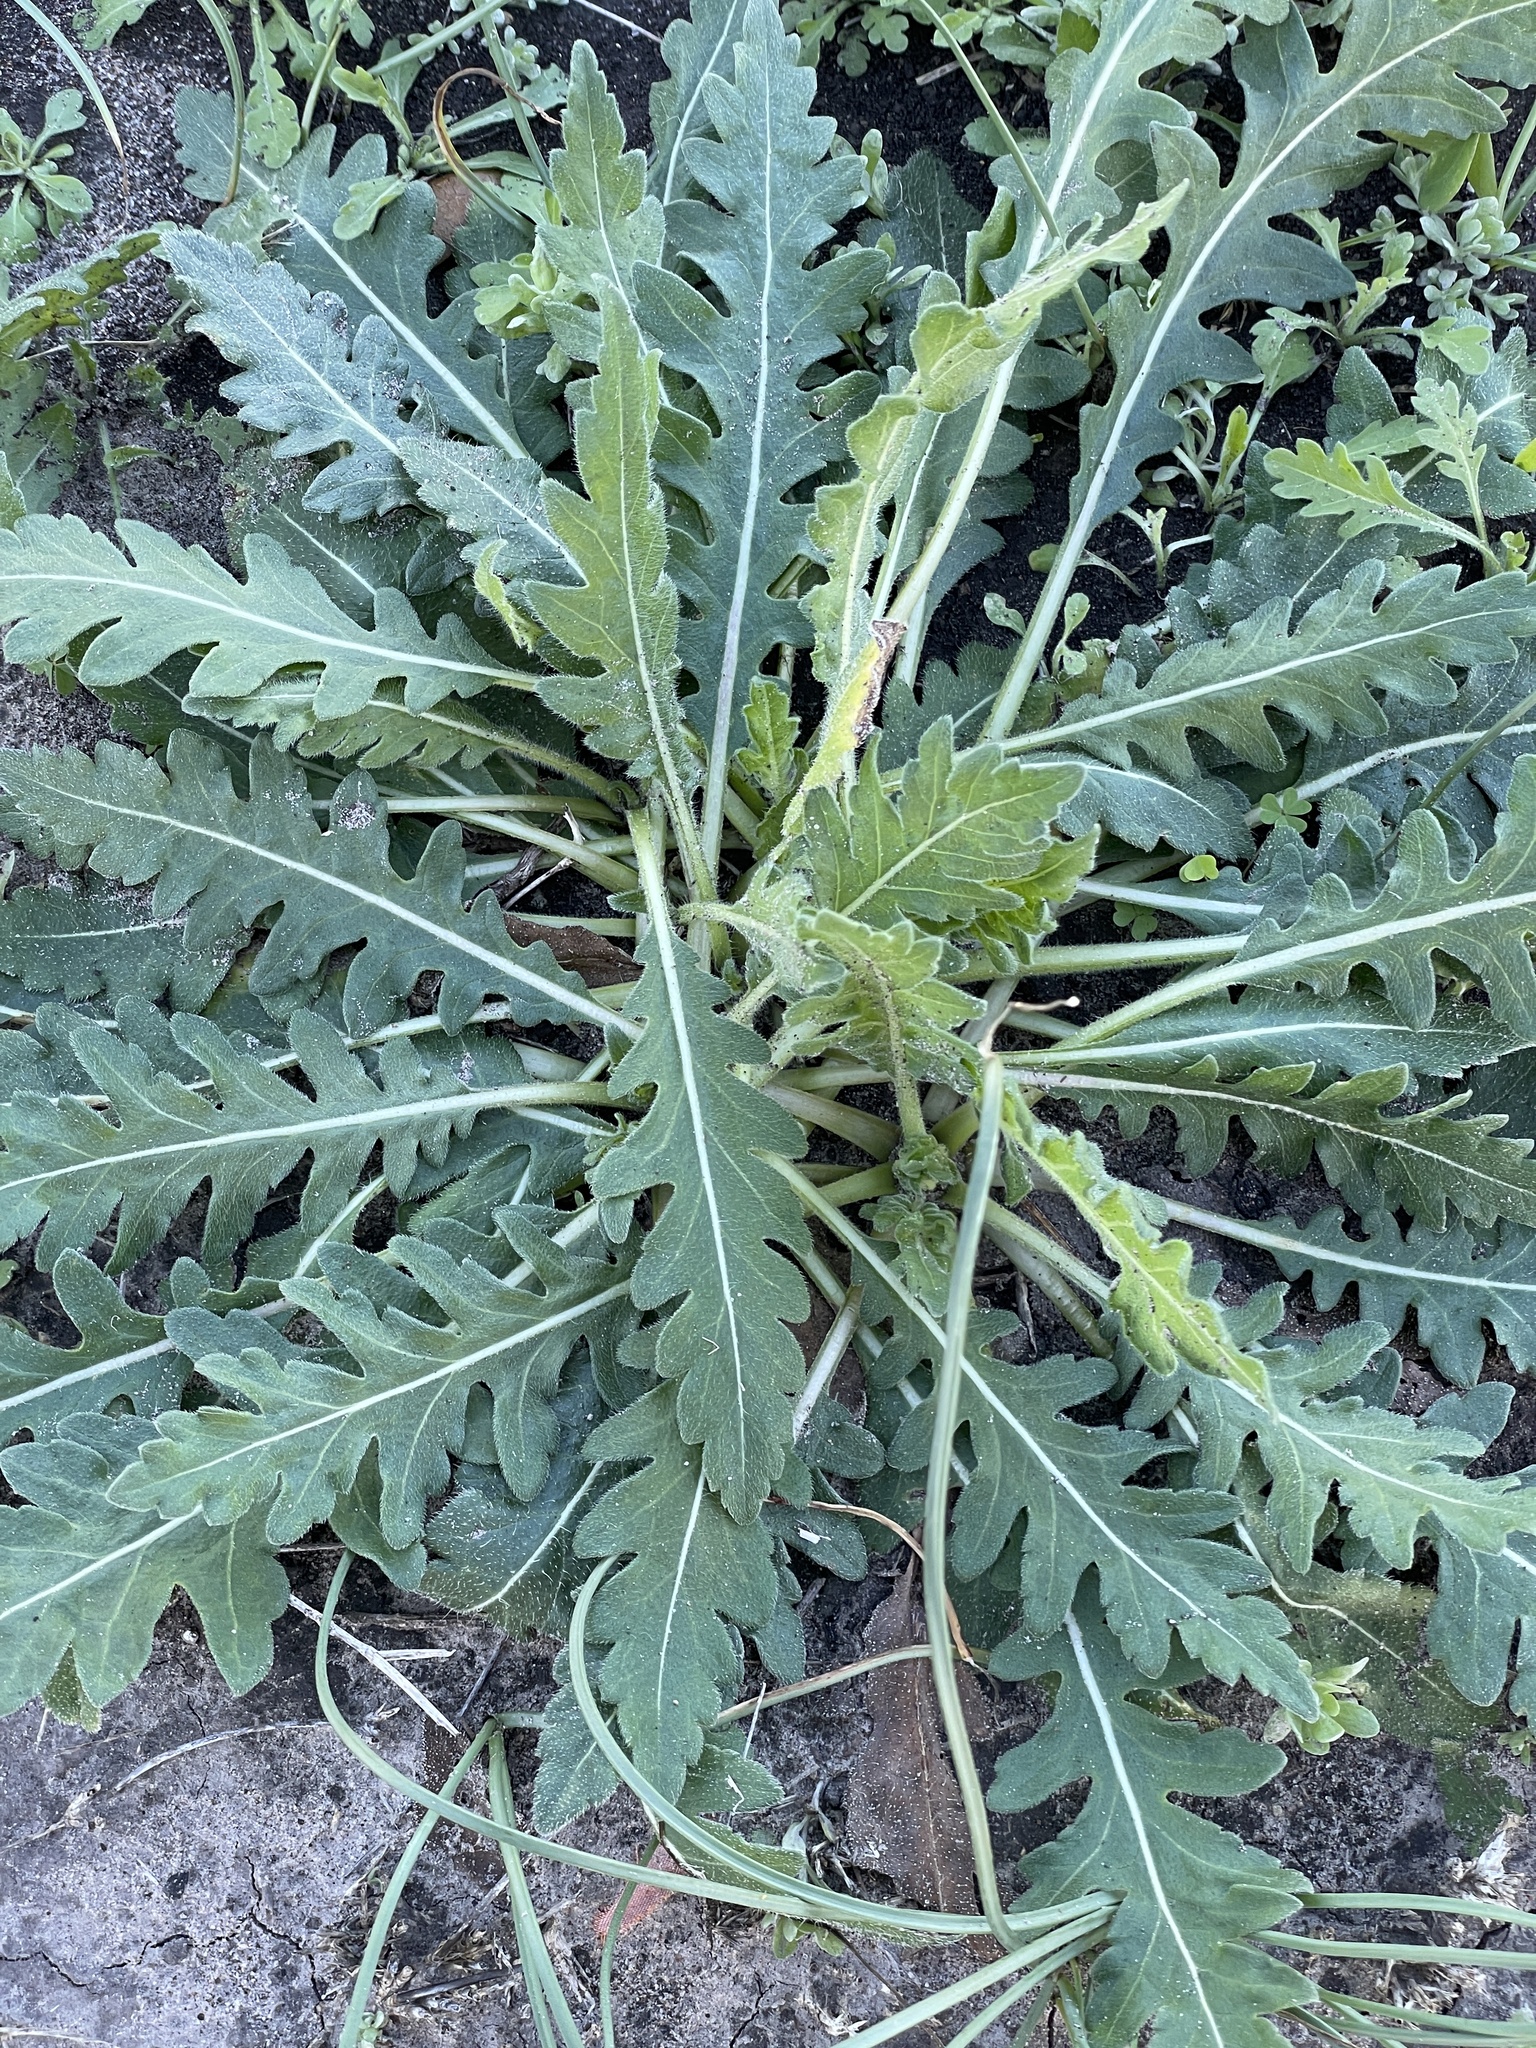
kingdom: Plantae
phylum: Tracheophyta
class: Magnoliopsida
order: Asterales
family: Asteraceae
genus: Engelmannia
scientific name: Engelmannia peristenia
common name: Engelmann's daisy
